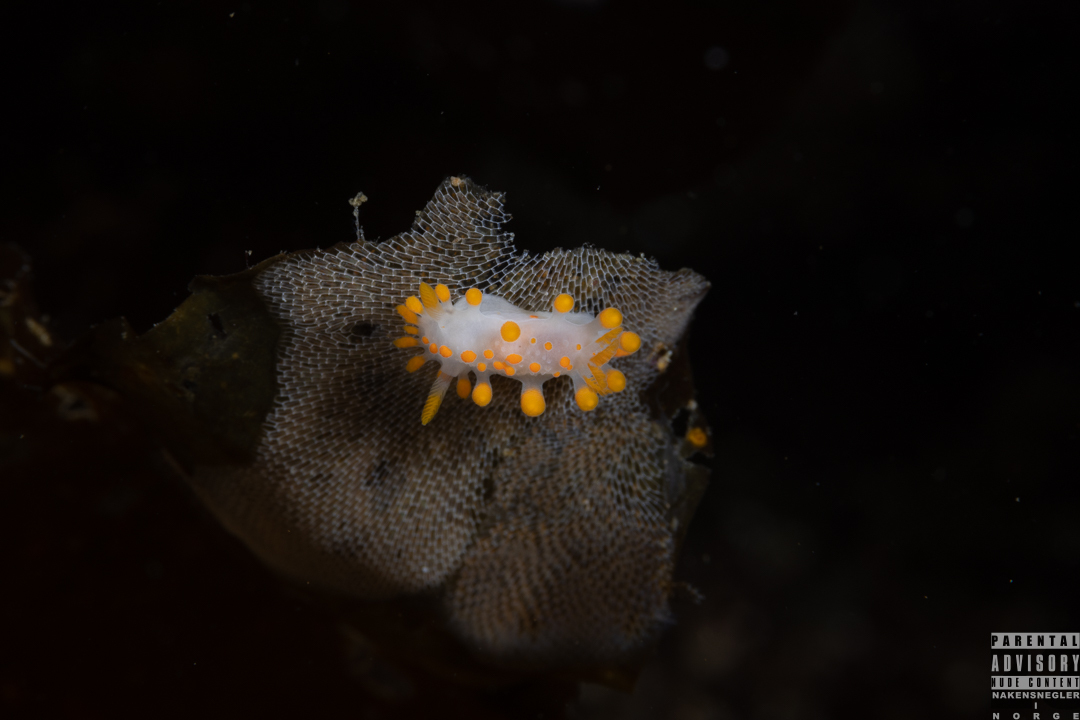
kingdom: Animalia
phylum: Mollusca
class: Gastropoda
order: Nudibranchia
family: Polyceridae
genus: Limacia
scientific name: Limacia clavigera
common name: Orange-clubbed sea slug
